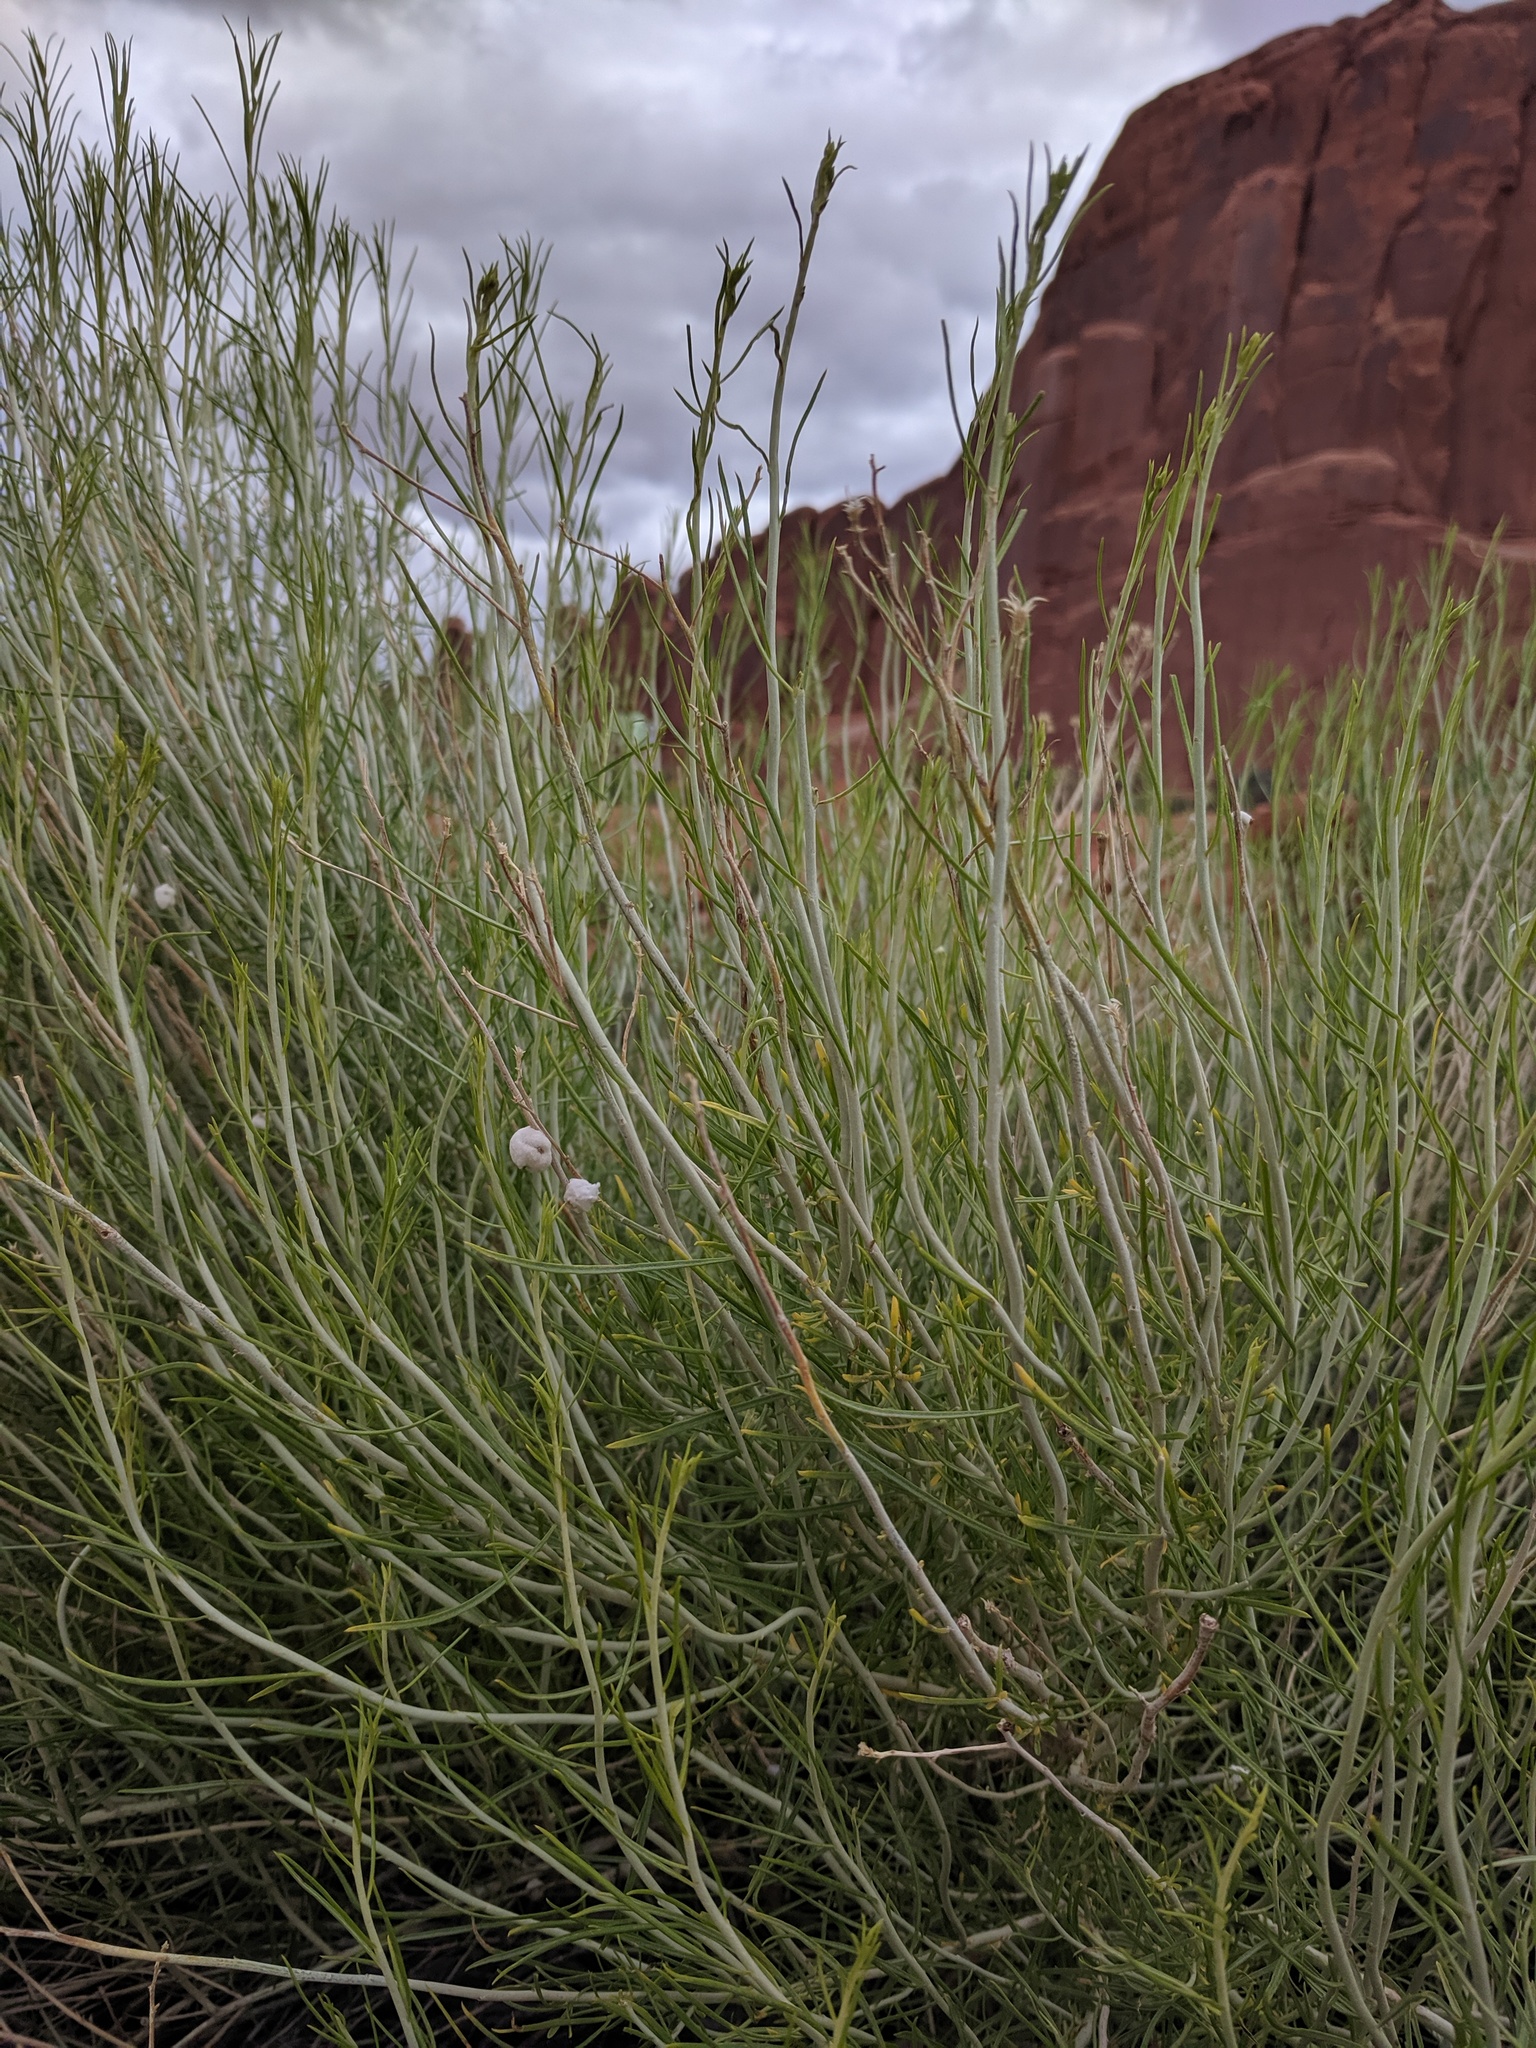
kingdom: Plantae
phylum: Tracheophyta
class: Magnoliopsida
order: Asterales
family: Asteraceae
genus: Ericameria
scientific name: Ericameria nauseosa
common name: Rubber rabbitbrush
